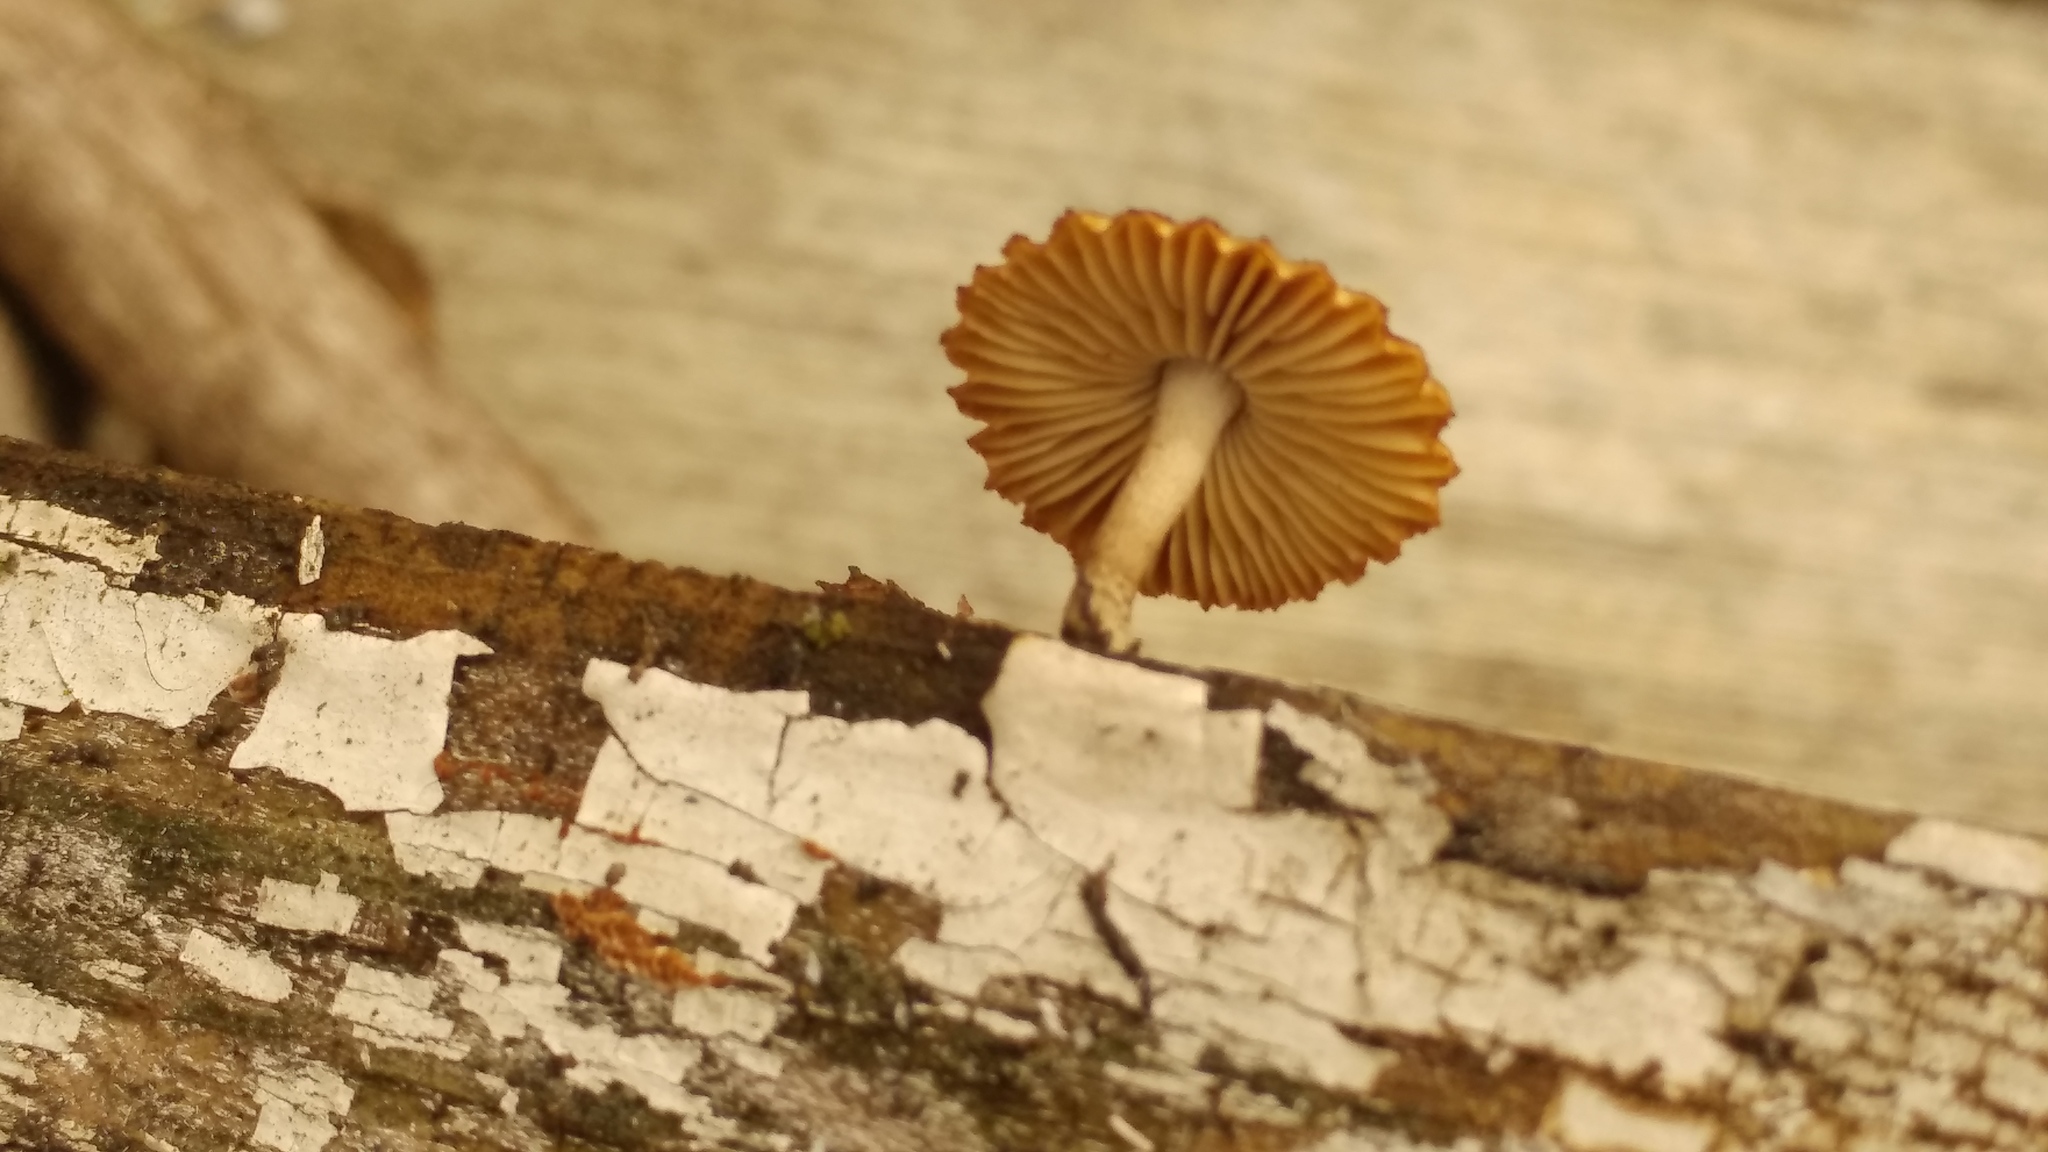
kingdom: Fungi
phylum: Basidiomycota
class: Agaricomycetes
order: Gloeophyllales
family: Gloeophyllaceae
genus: Heliocybe
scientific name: Heliocybe sulcata
